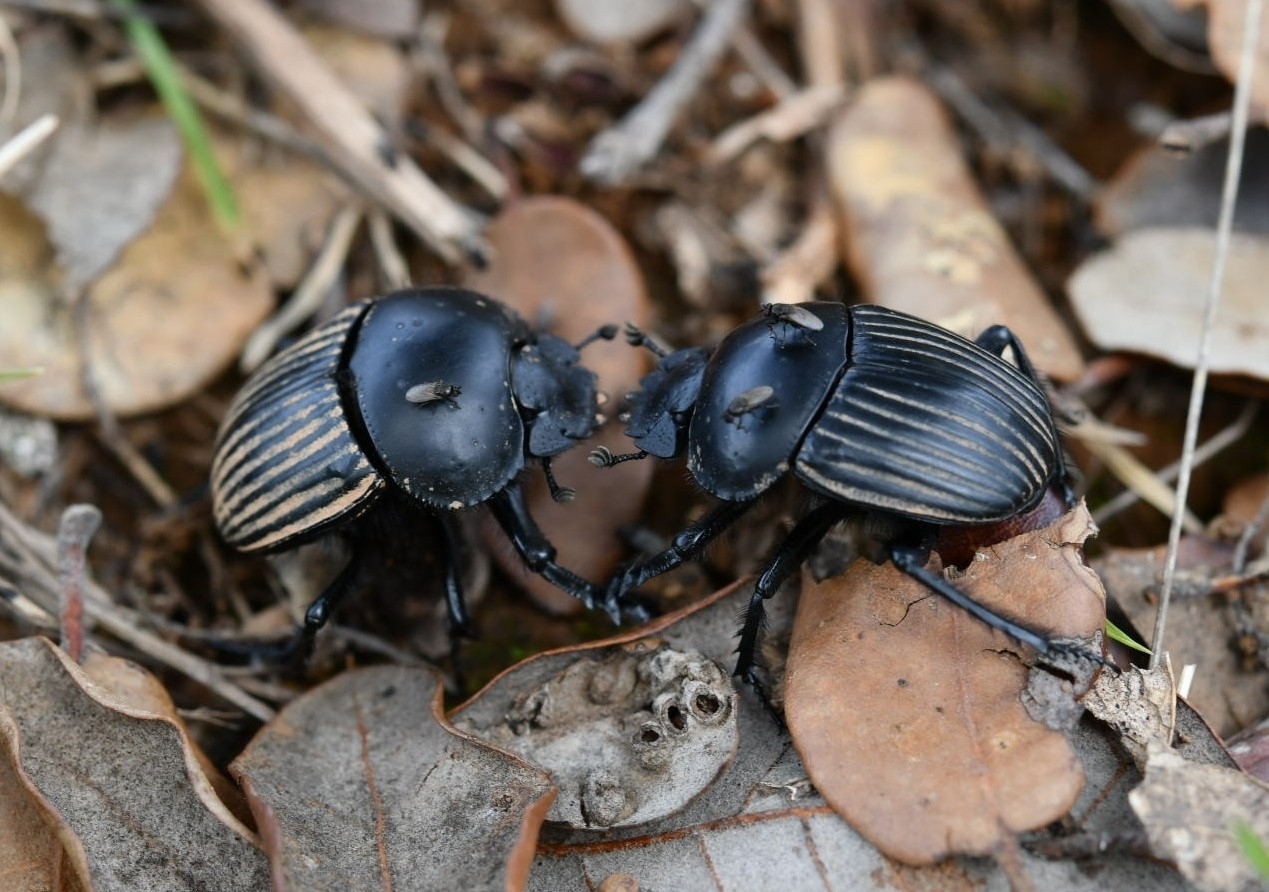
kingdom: Animalia
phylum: Arthropoda
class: Insecta
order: Coleoptera
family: Scarabaeidae
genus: Ateuchetus
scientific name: Ateuchetus laticollis
